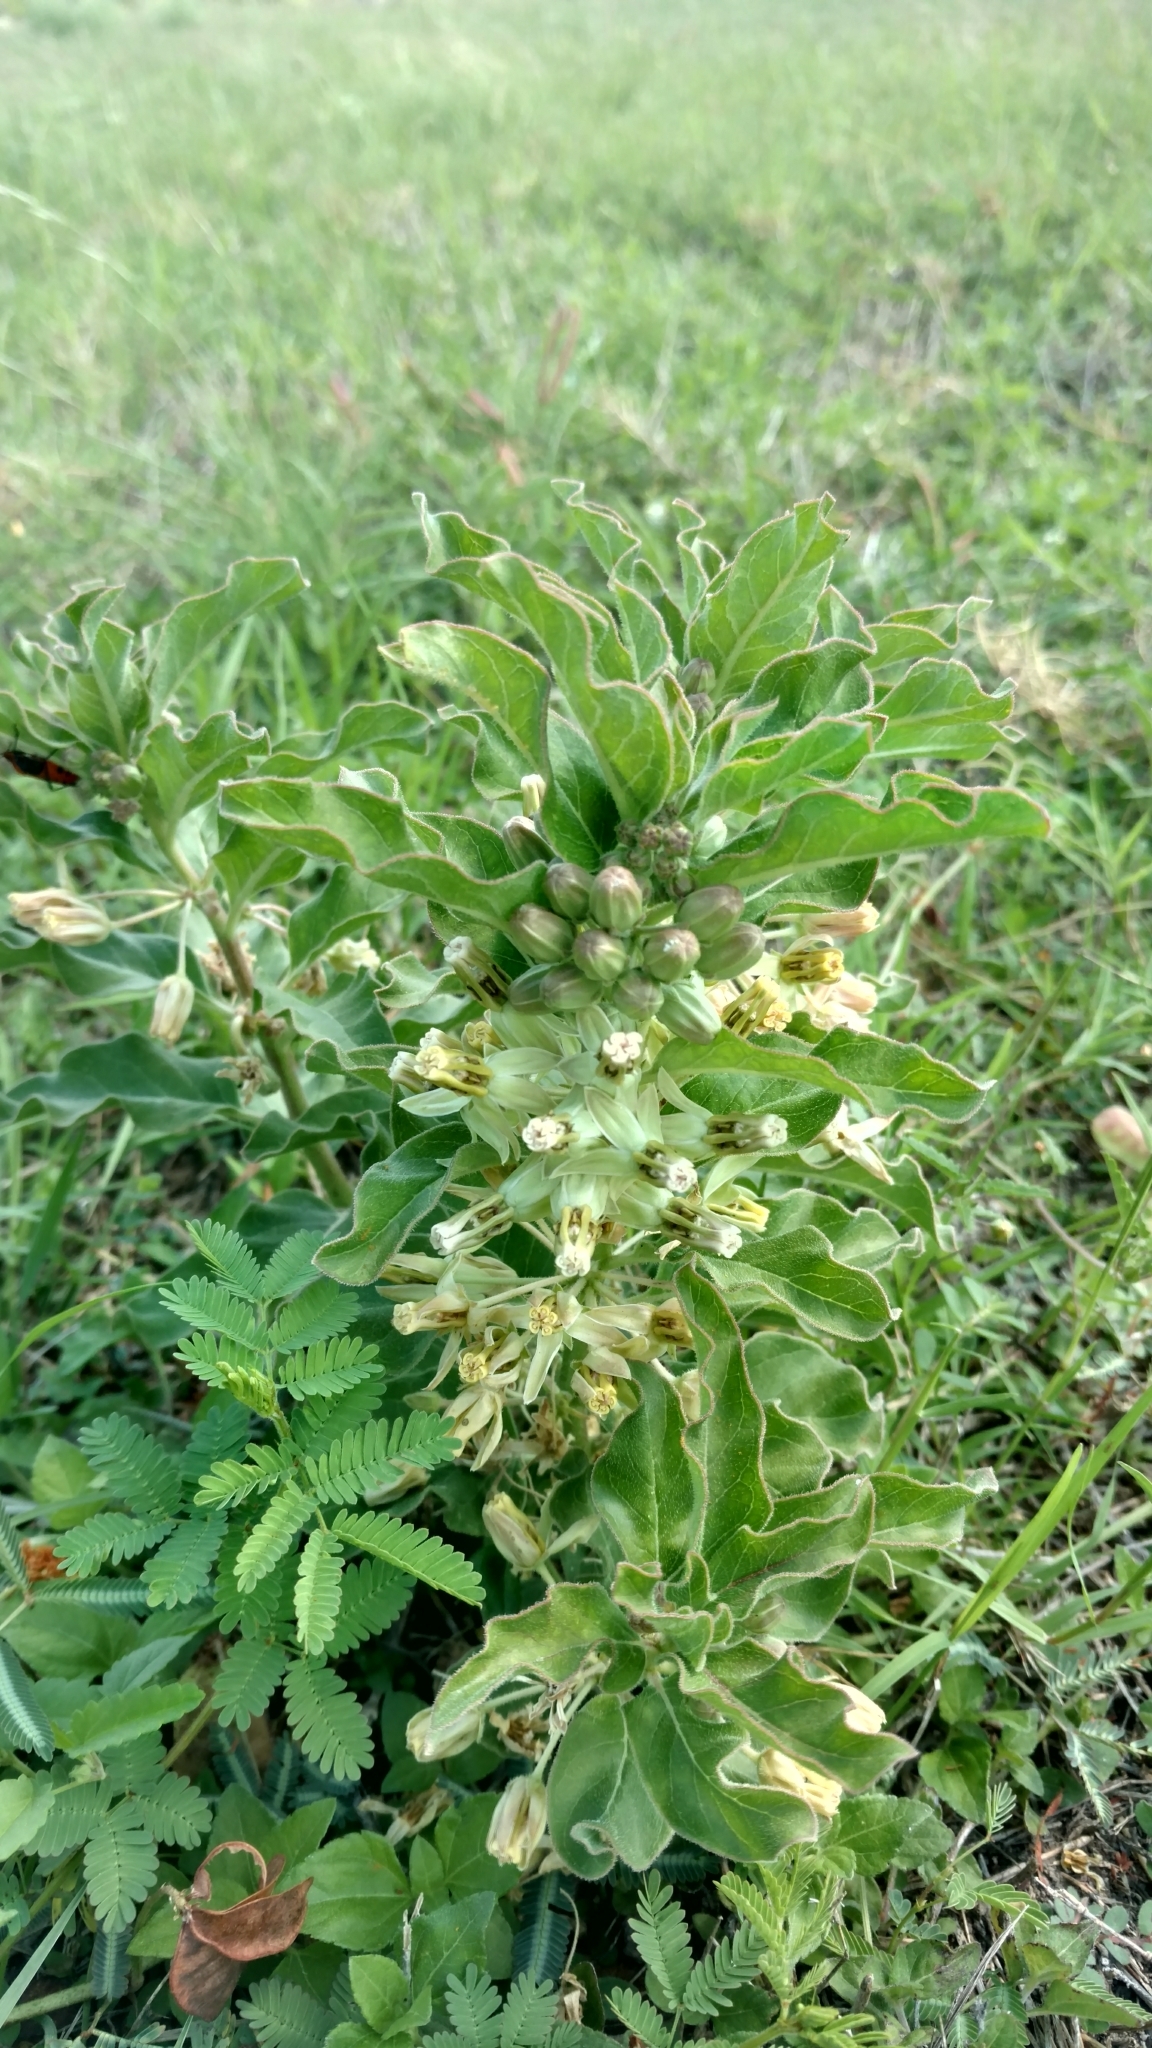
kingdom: Plantae
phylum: Tracheophyta
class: Magnoliopsida
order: Gentianales
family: Apocynaceae
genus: Asclepias
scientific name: Asclepias oenotheroides
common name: Zizotes milkweed
